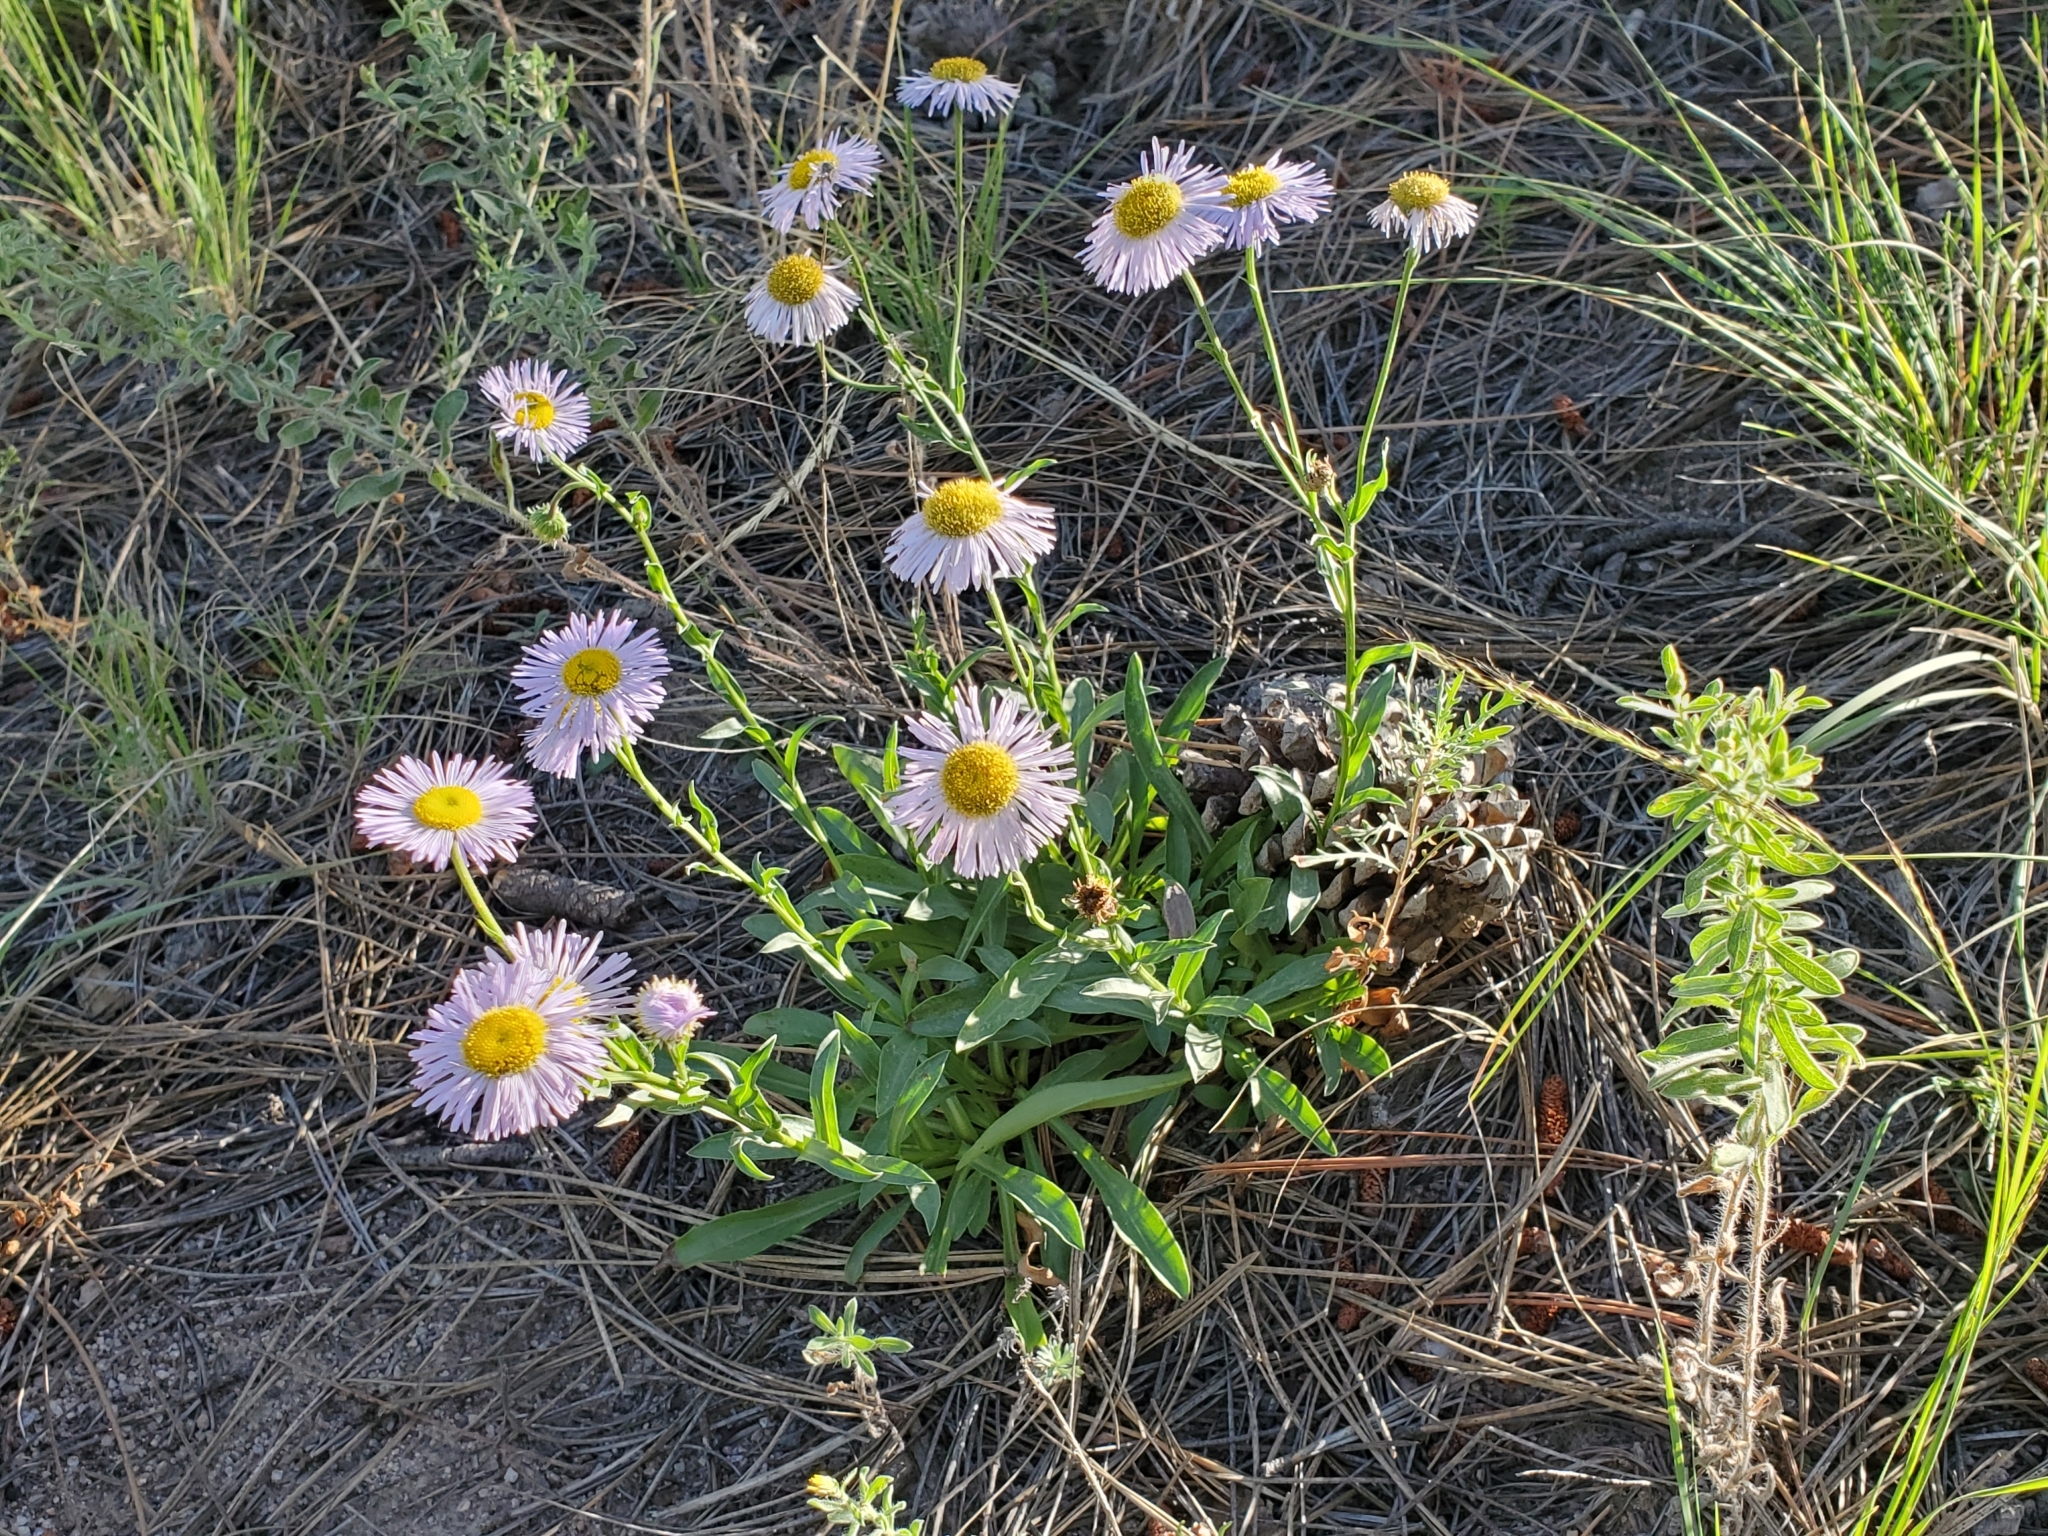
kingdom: Plantae
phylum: Tracheophyta
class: Magnoliopsida
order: Asterales
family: Asteraceae
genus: Erigeron
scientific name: Erigeron speciosus
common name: Aspen fleabane
